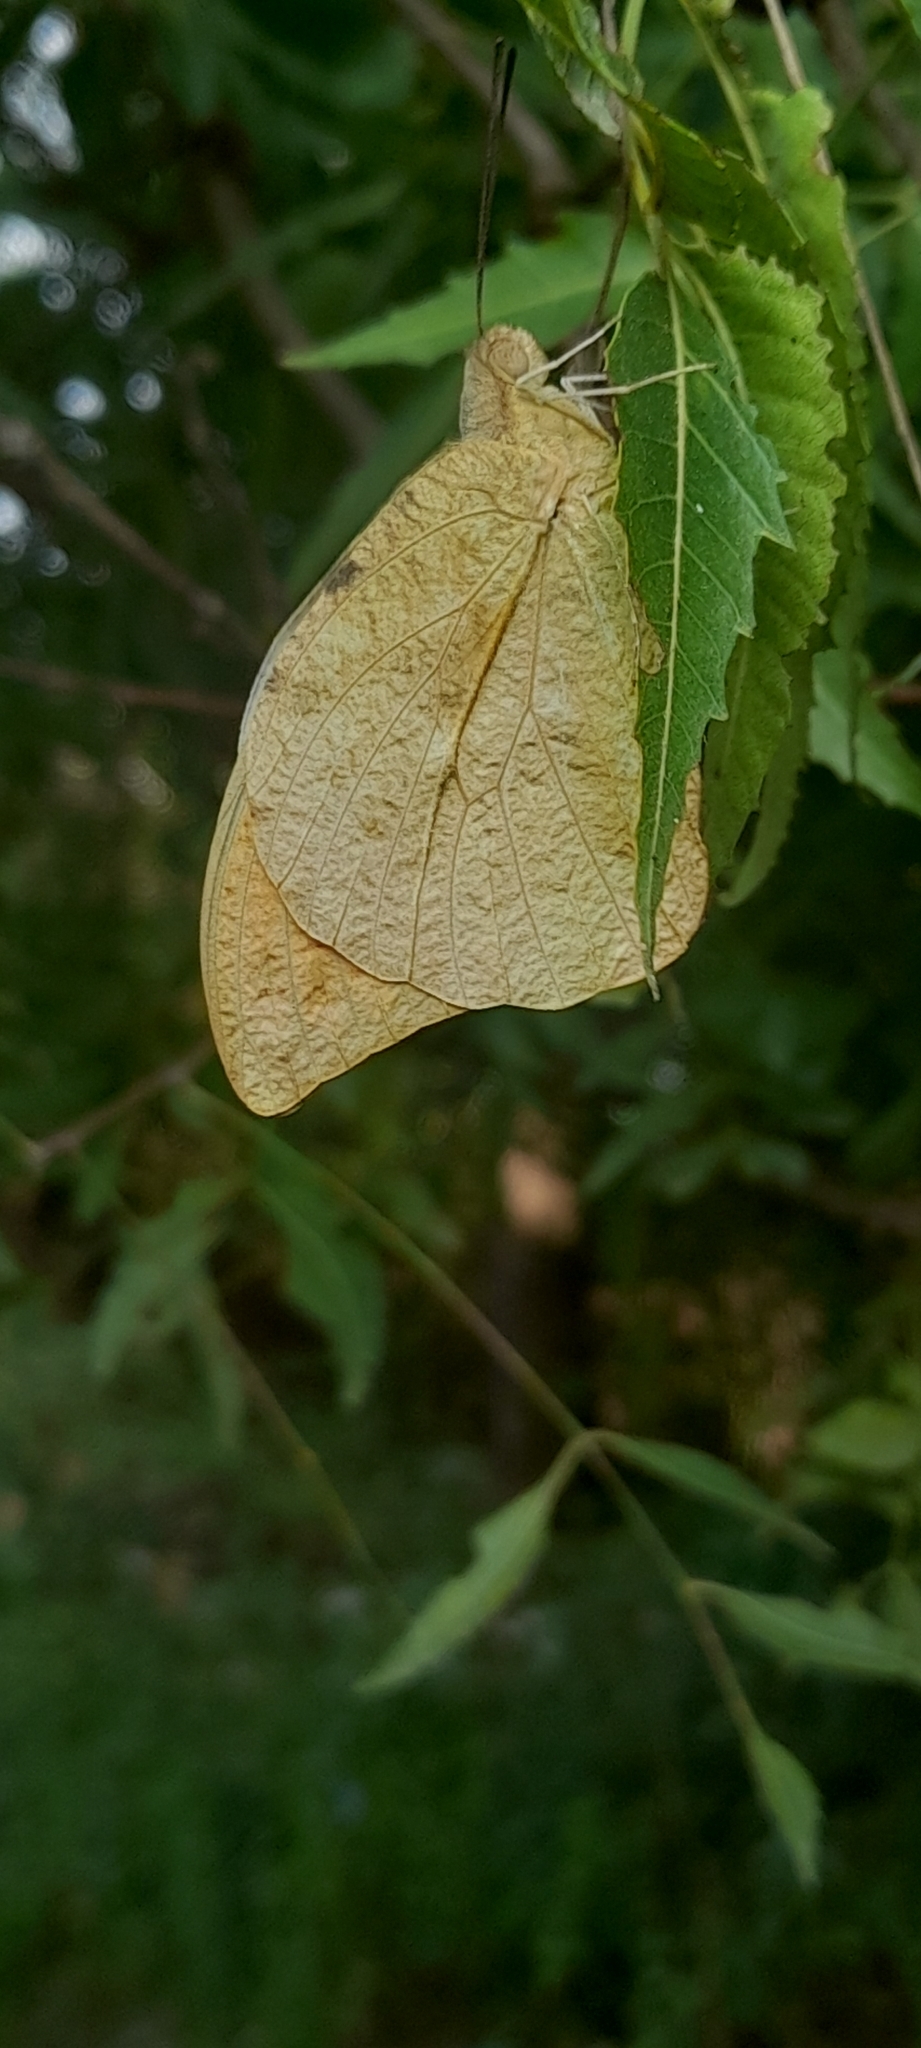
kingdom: Animalia
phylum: Arthropoda
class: Insecta
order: Lepidoptera
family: Pieridae
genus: Hebomoia
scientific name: Hebomoia glaucippe
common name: Great orange tip
